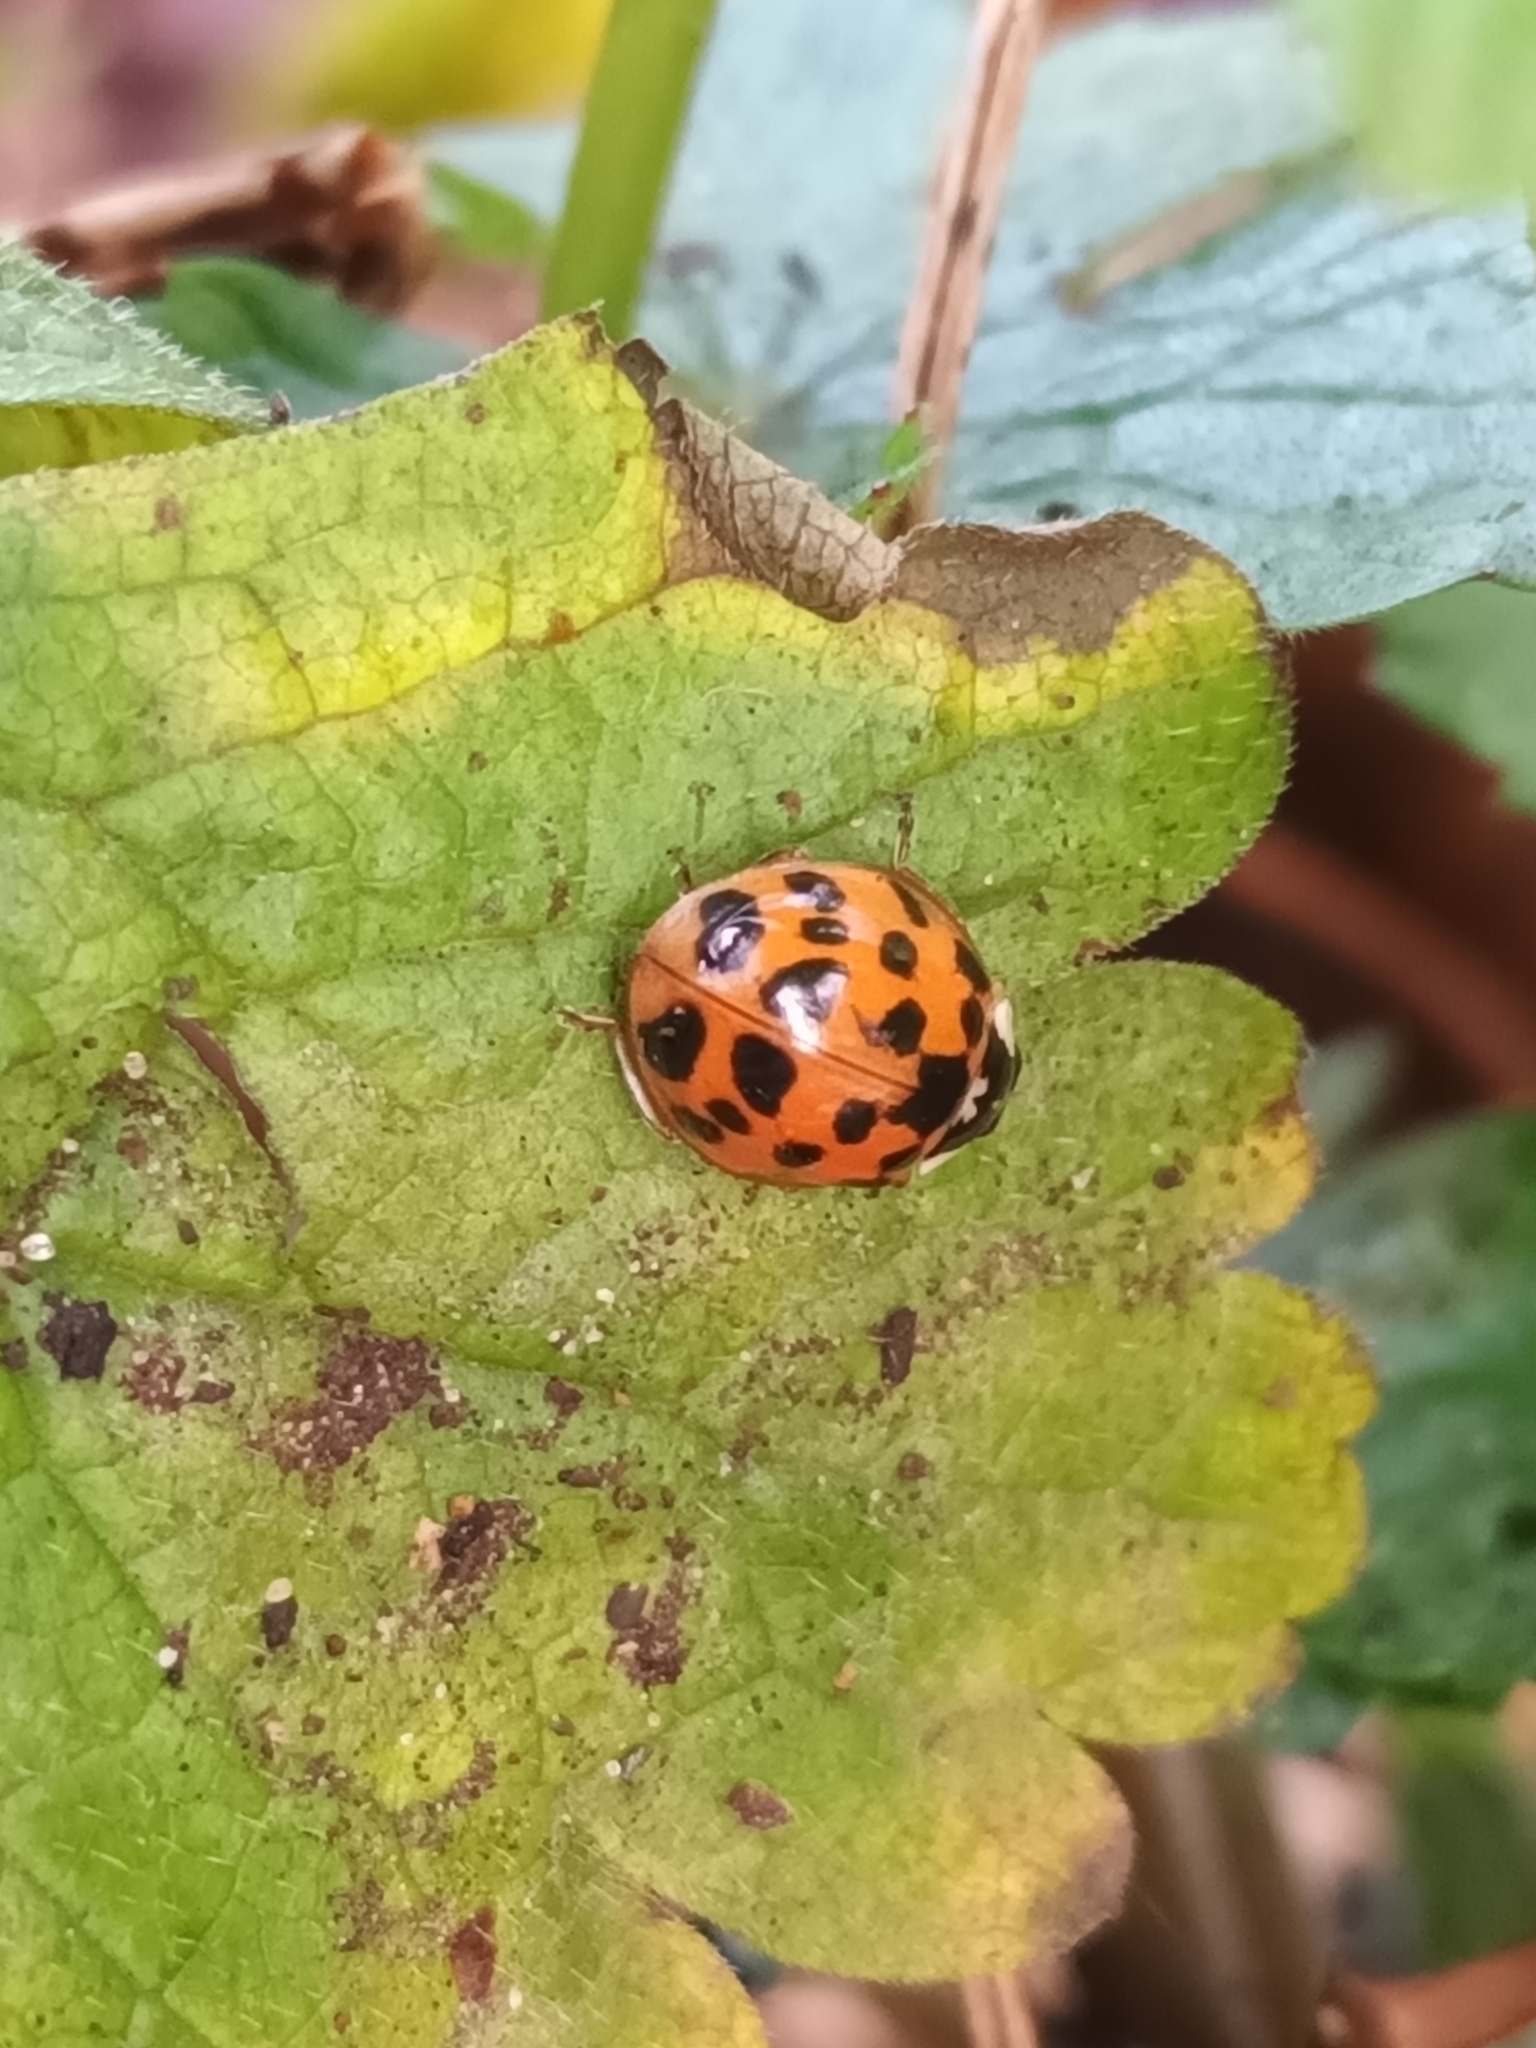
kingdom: Animalia
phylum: Arthropoda
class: Insecta
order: Coleoptera
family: Coccinellidae
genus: Harmonia
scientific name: Harmonia axyridis
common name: Harlequin ladybird
